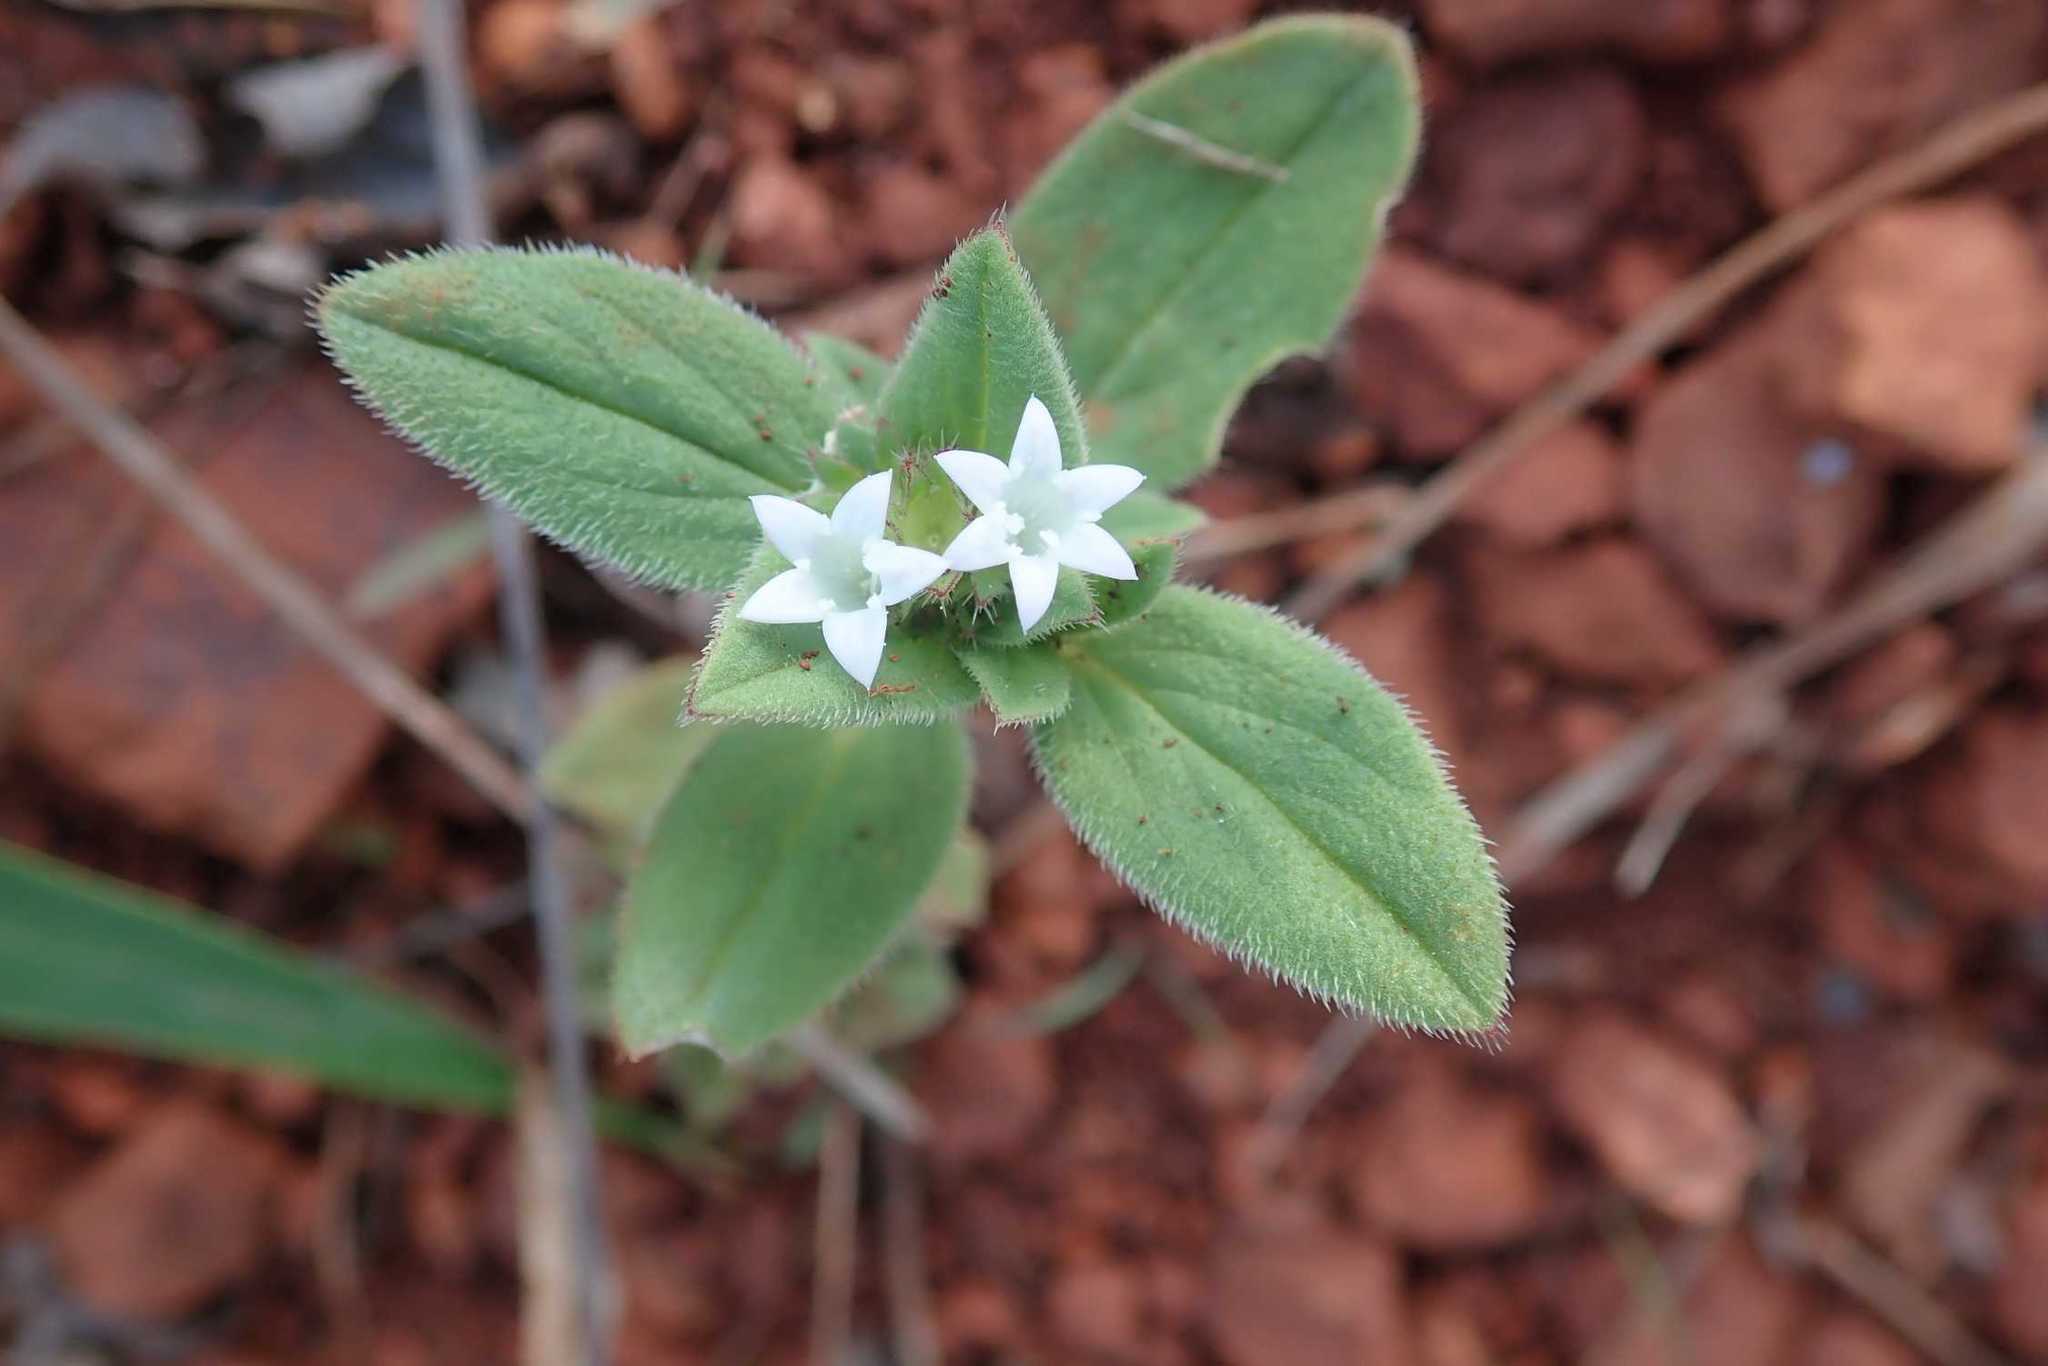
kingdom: Plantae
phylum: Tracheophyta
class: Magnoliopsida
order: Gentianales
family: Rubiaceae
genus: Richardia
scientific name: Richardia brasiliensis
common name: Tropical mexican clover
